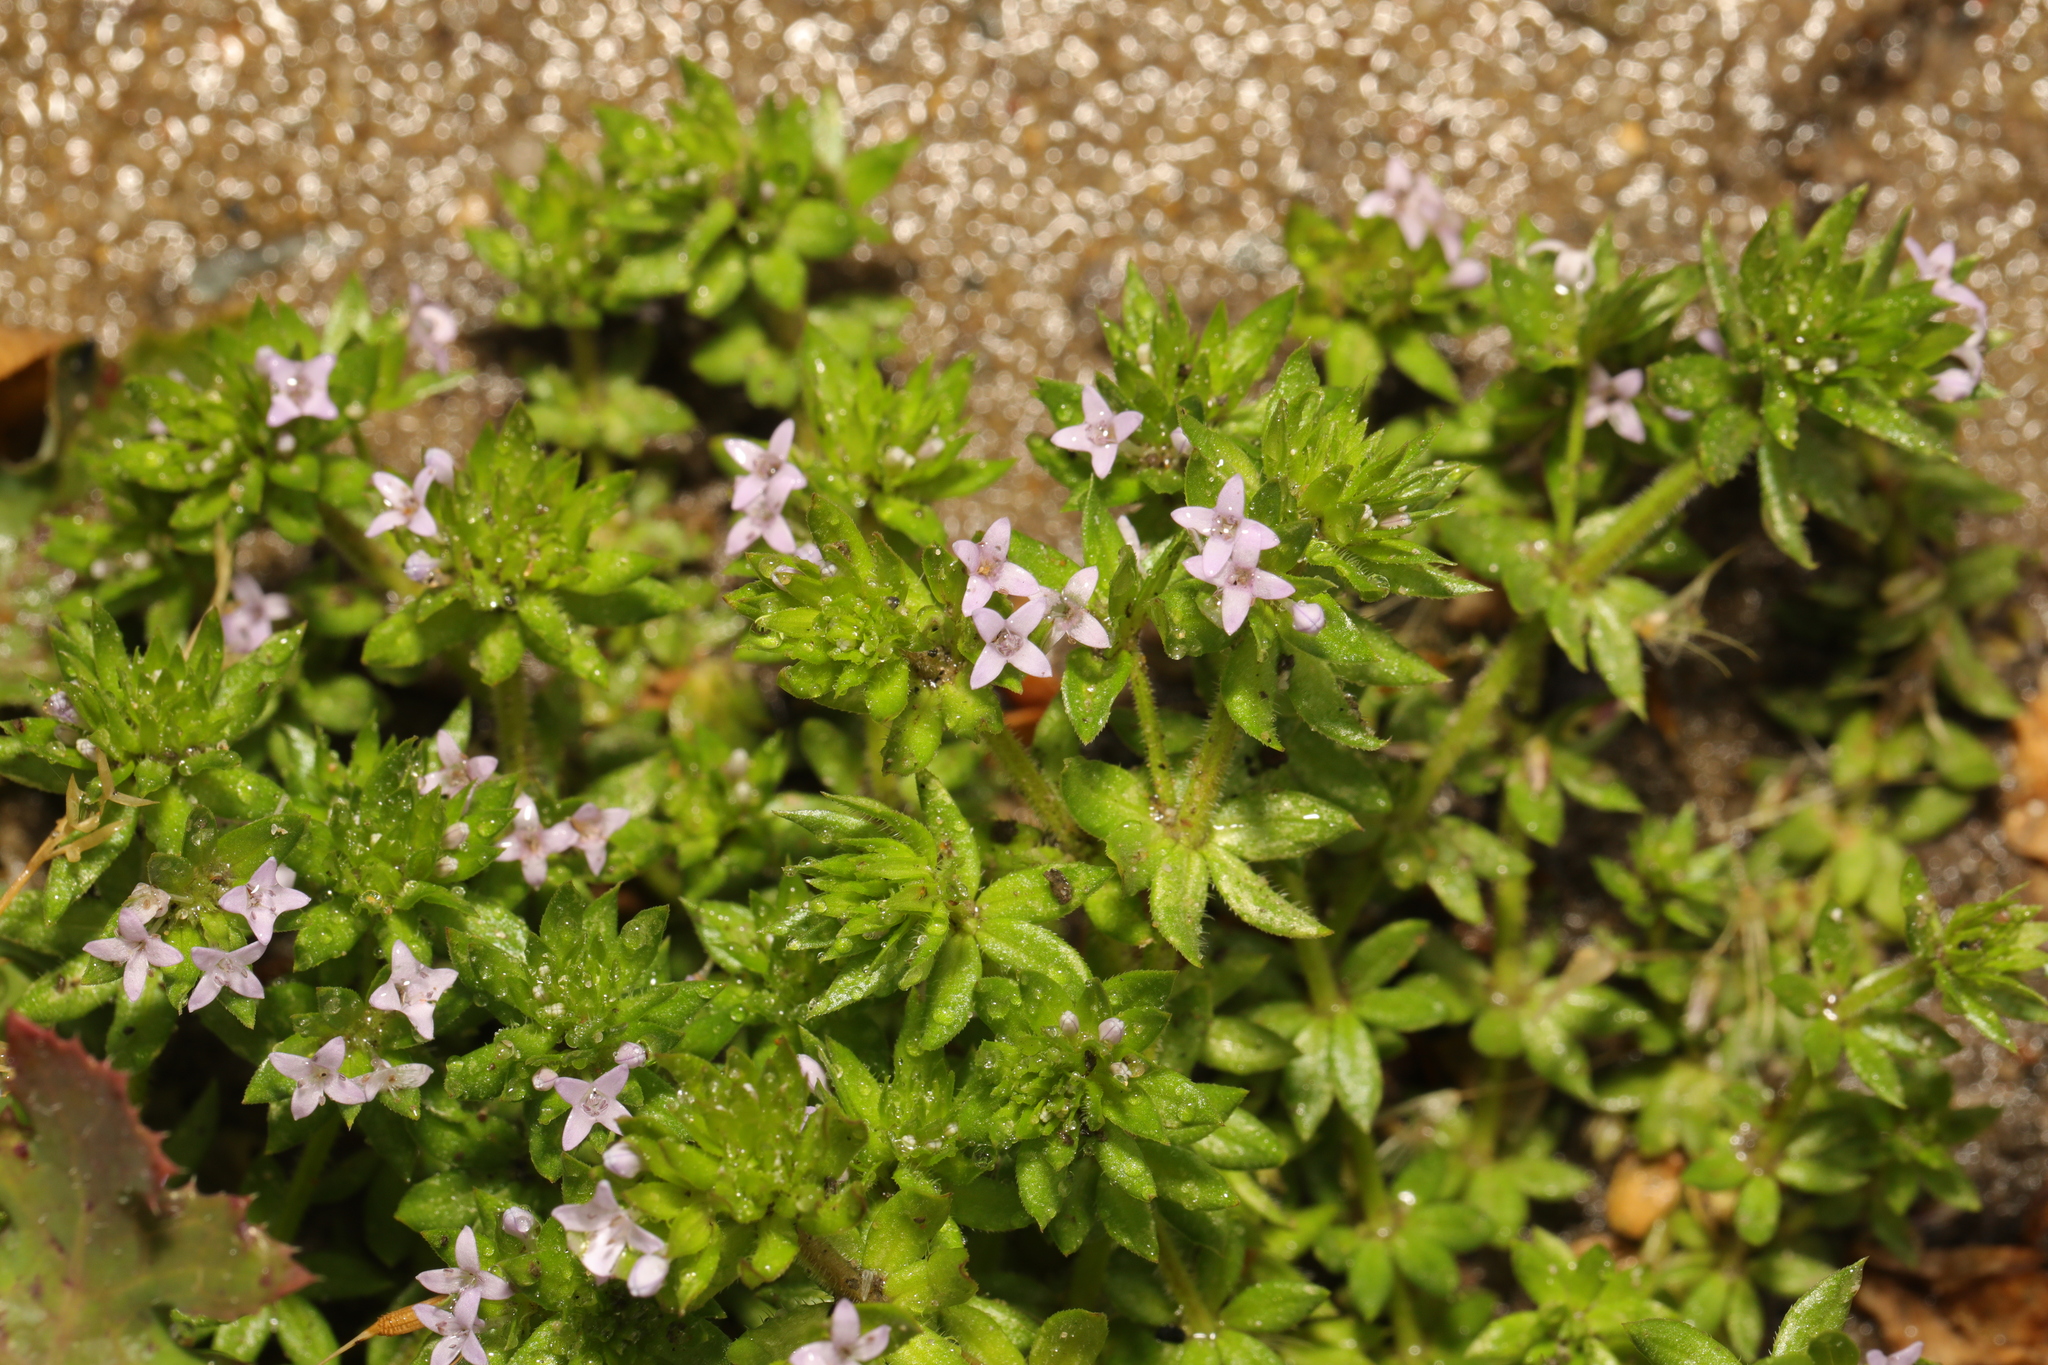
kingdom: Plantae
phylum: Tracheophyta
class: Magnoliopsida
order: Gentianales
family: Rubiaceae
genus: Sherardia
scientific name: Sherardia arvensis
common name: Field madder
